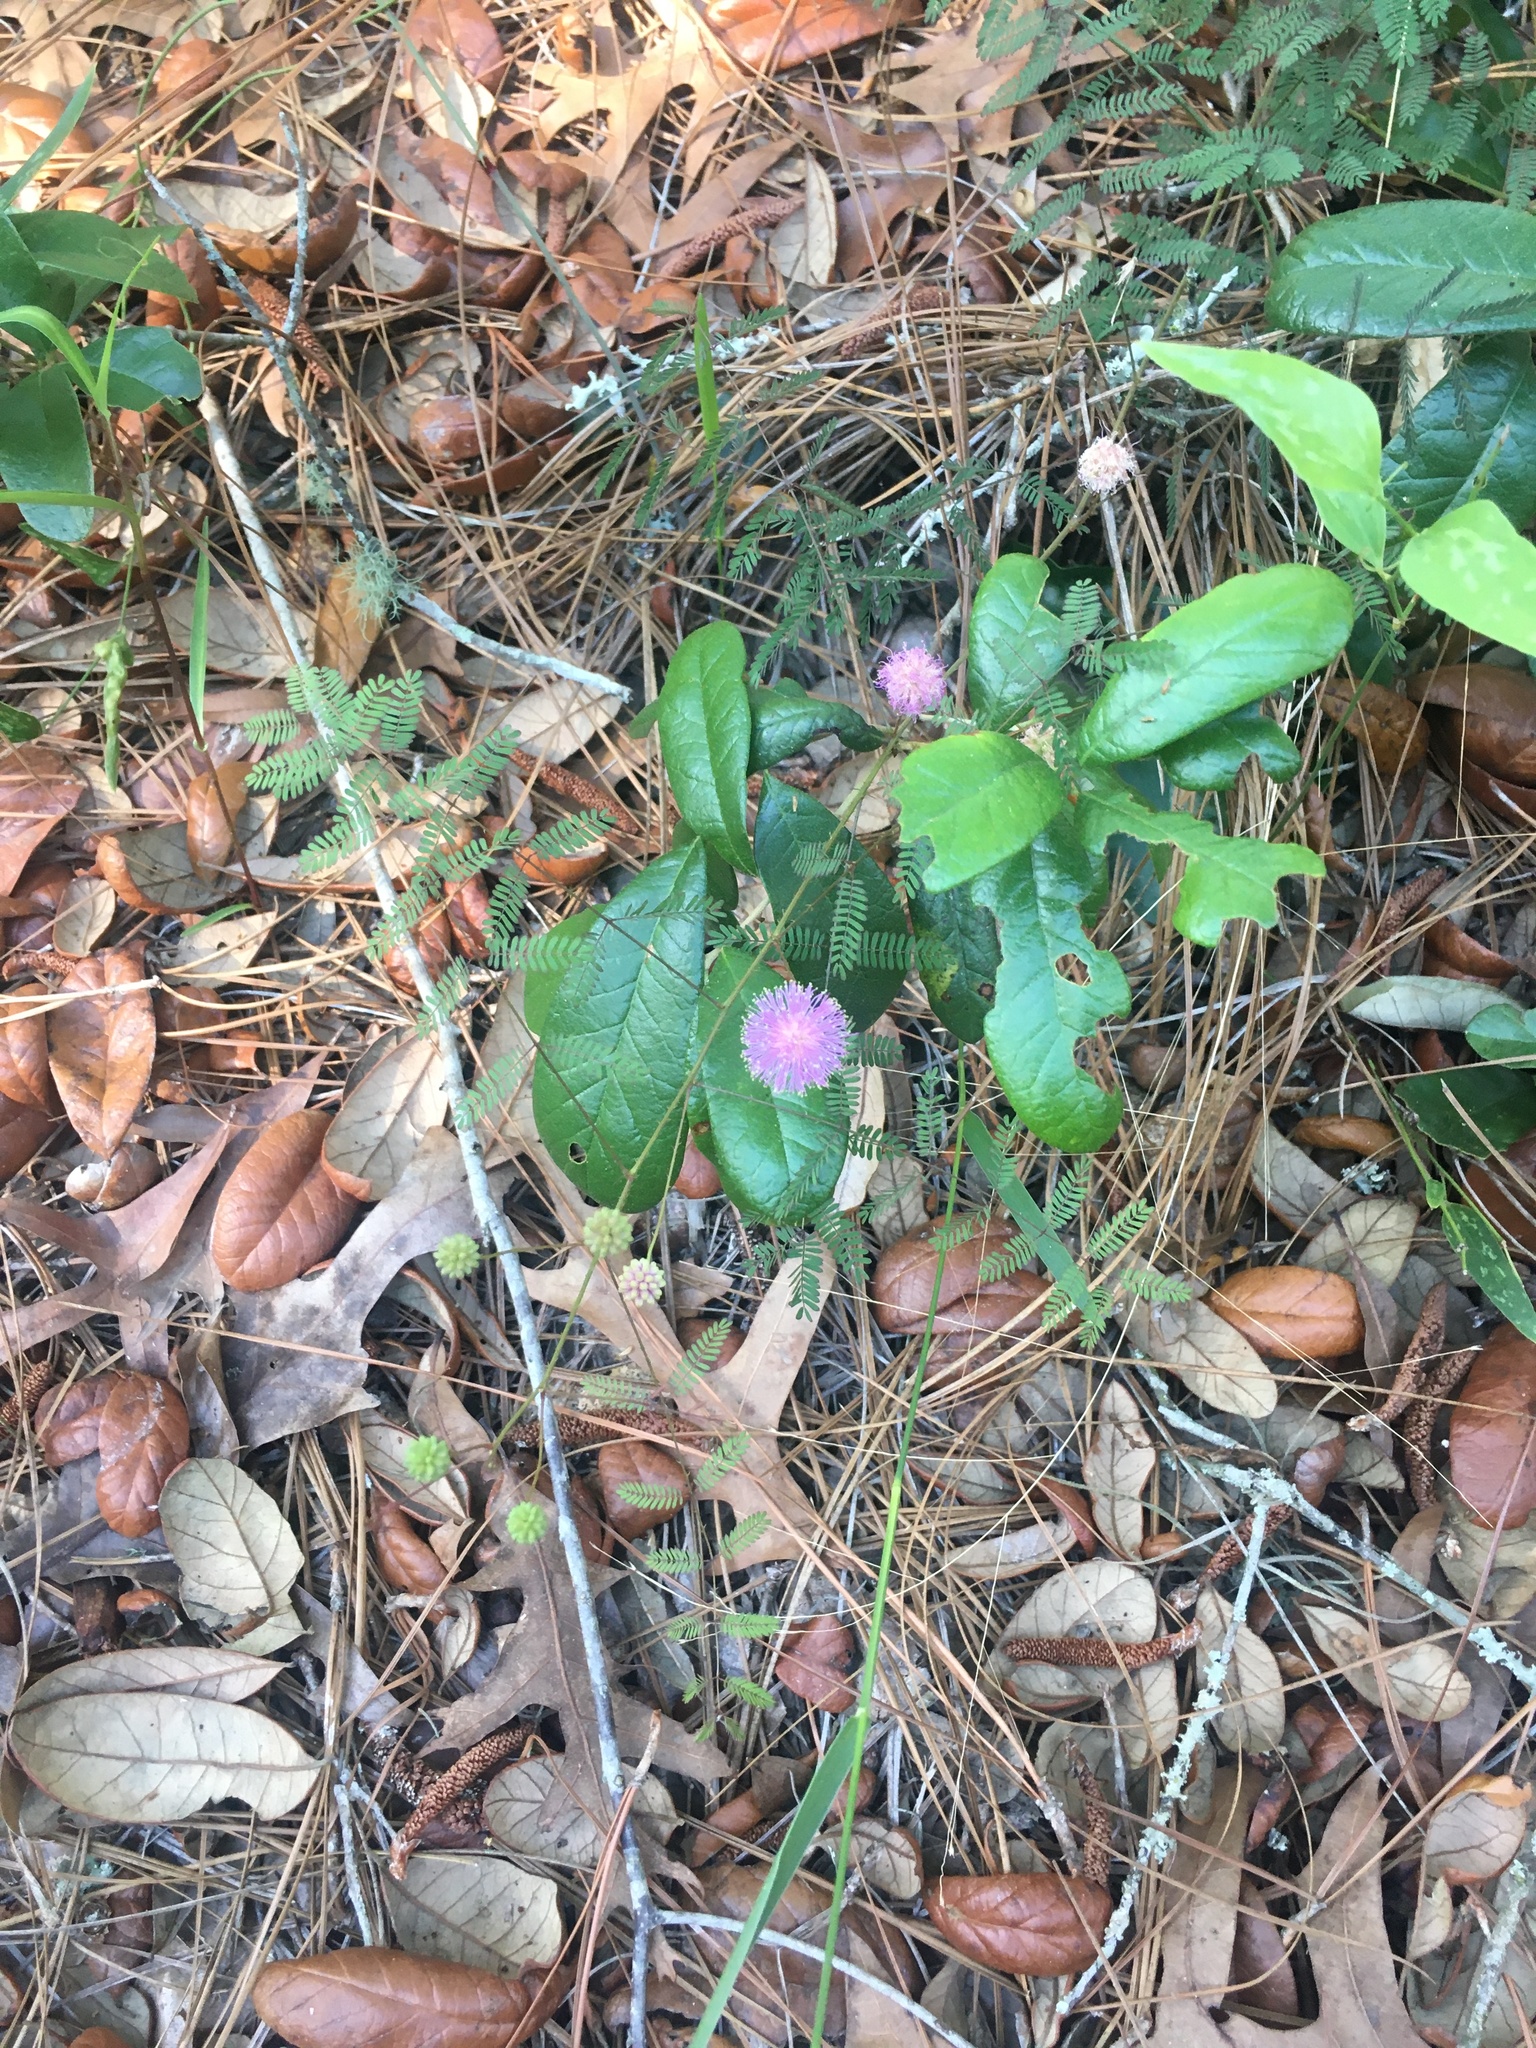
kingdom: Plantae
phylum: Tracheophyta
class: Magnoliopsida
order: Fabales
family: Fabaceae
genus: Mimosa
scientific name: Mimosa quadrivalvis
